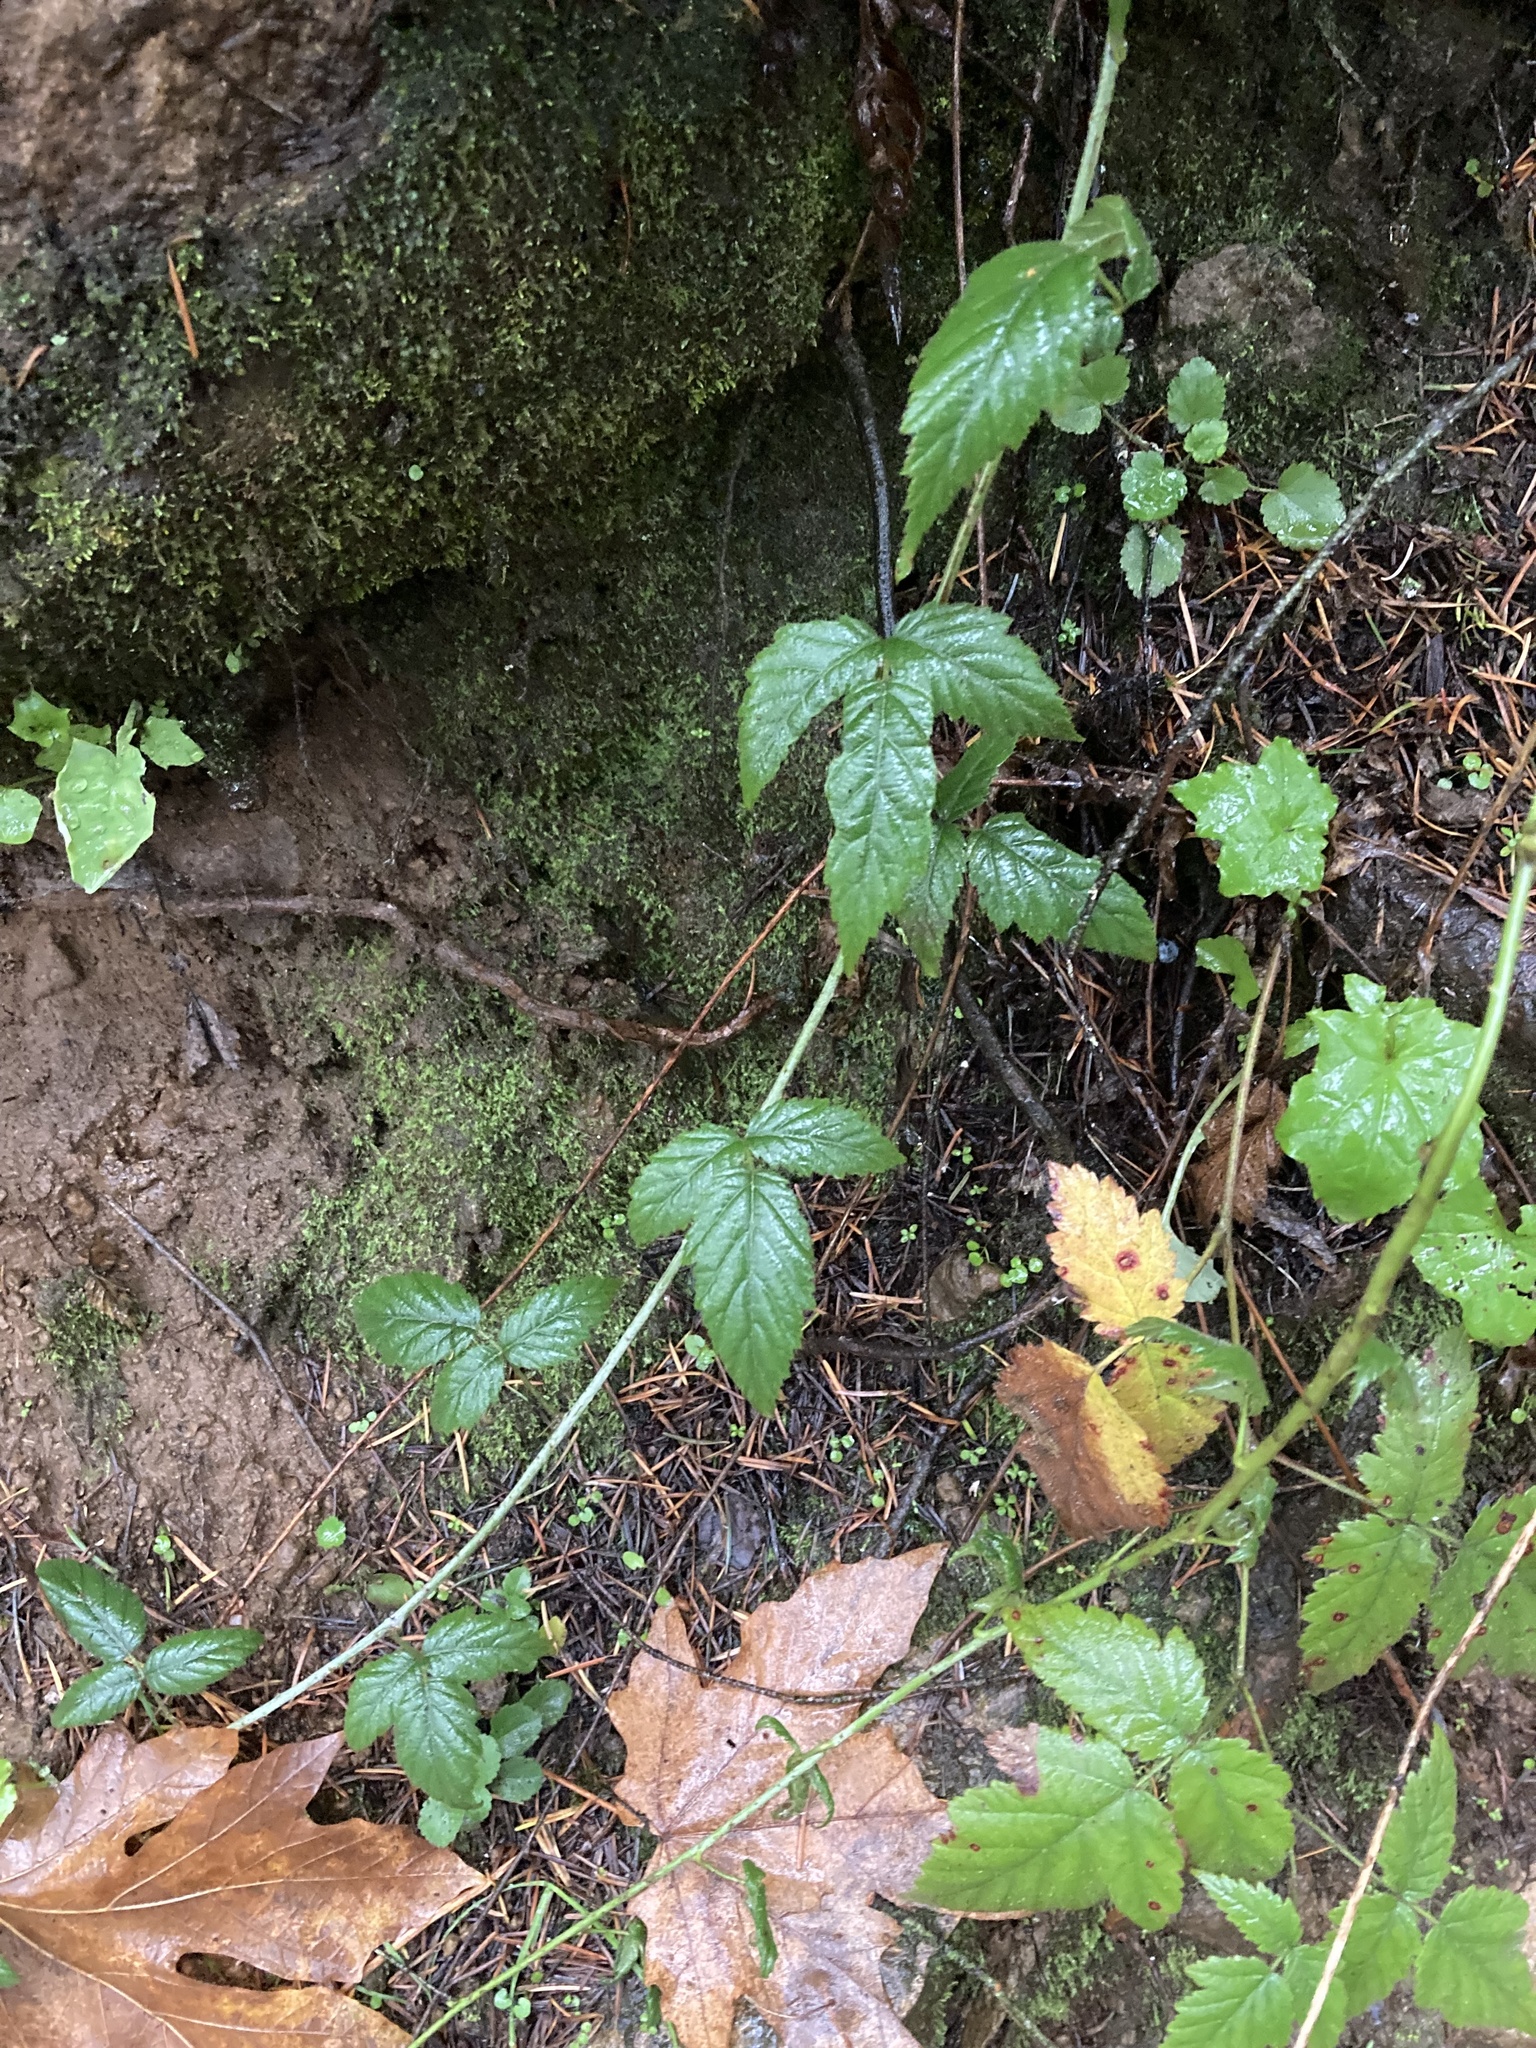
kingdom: Plantae
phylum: Tracheophyta
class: Magnoliopsida
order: Rosales
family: Rosaceae
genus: Rubus
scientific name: Rubus ursinus
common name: Pacific blackberry
